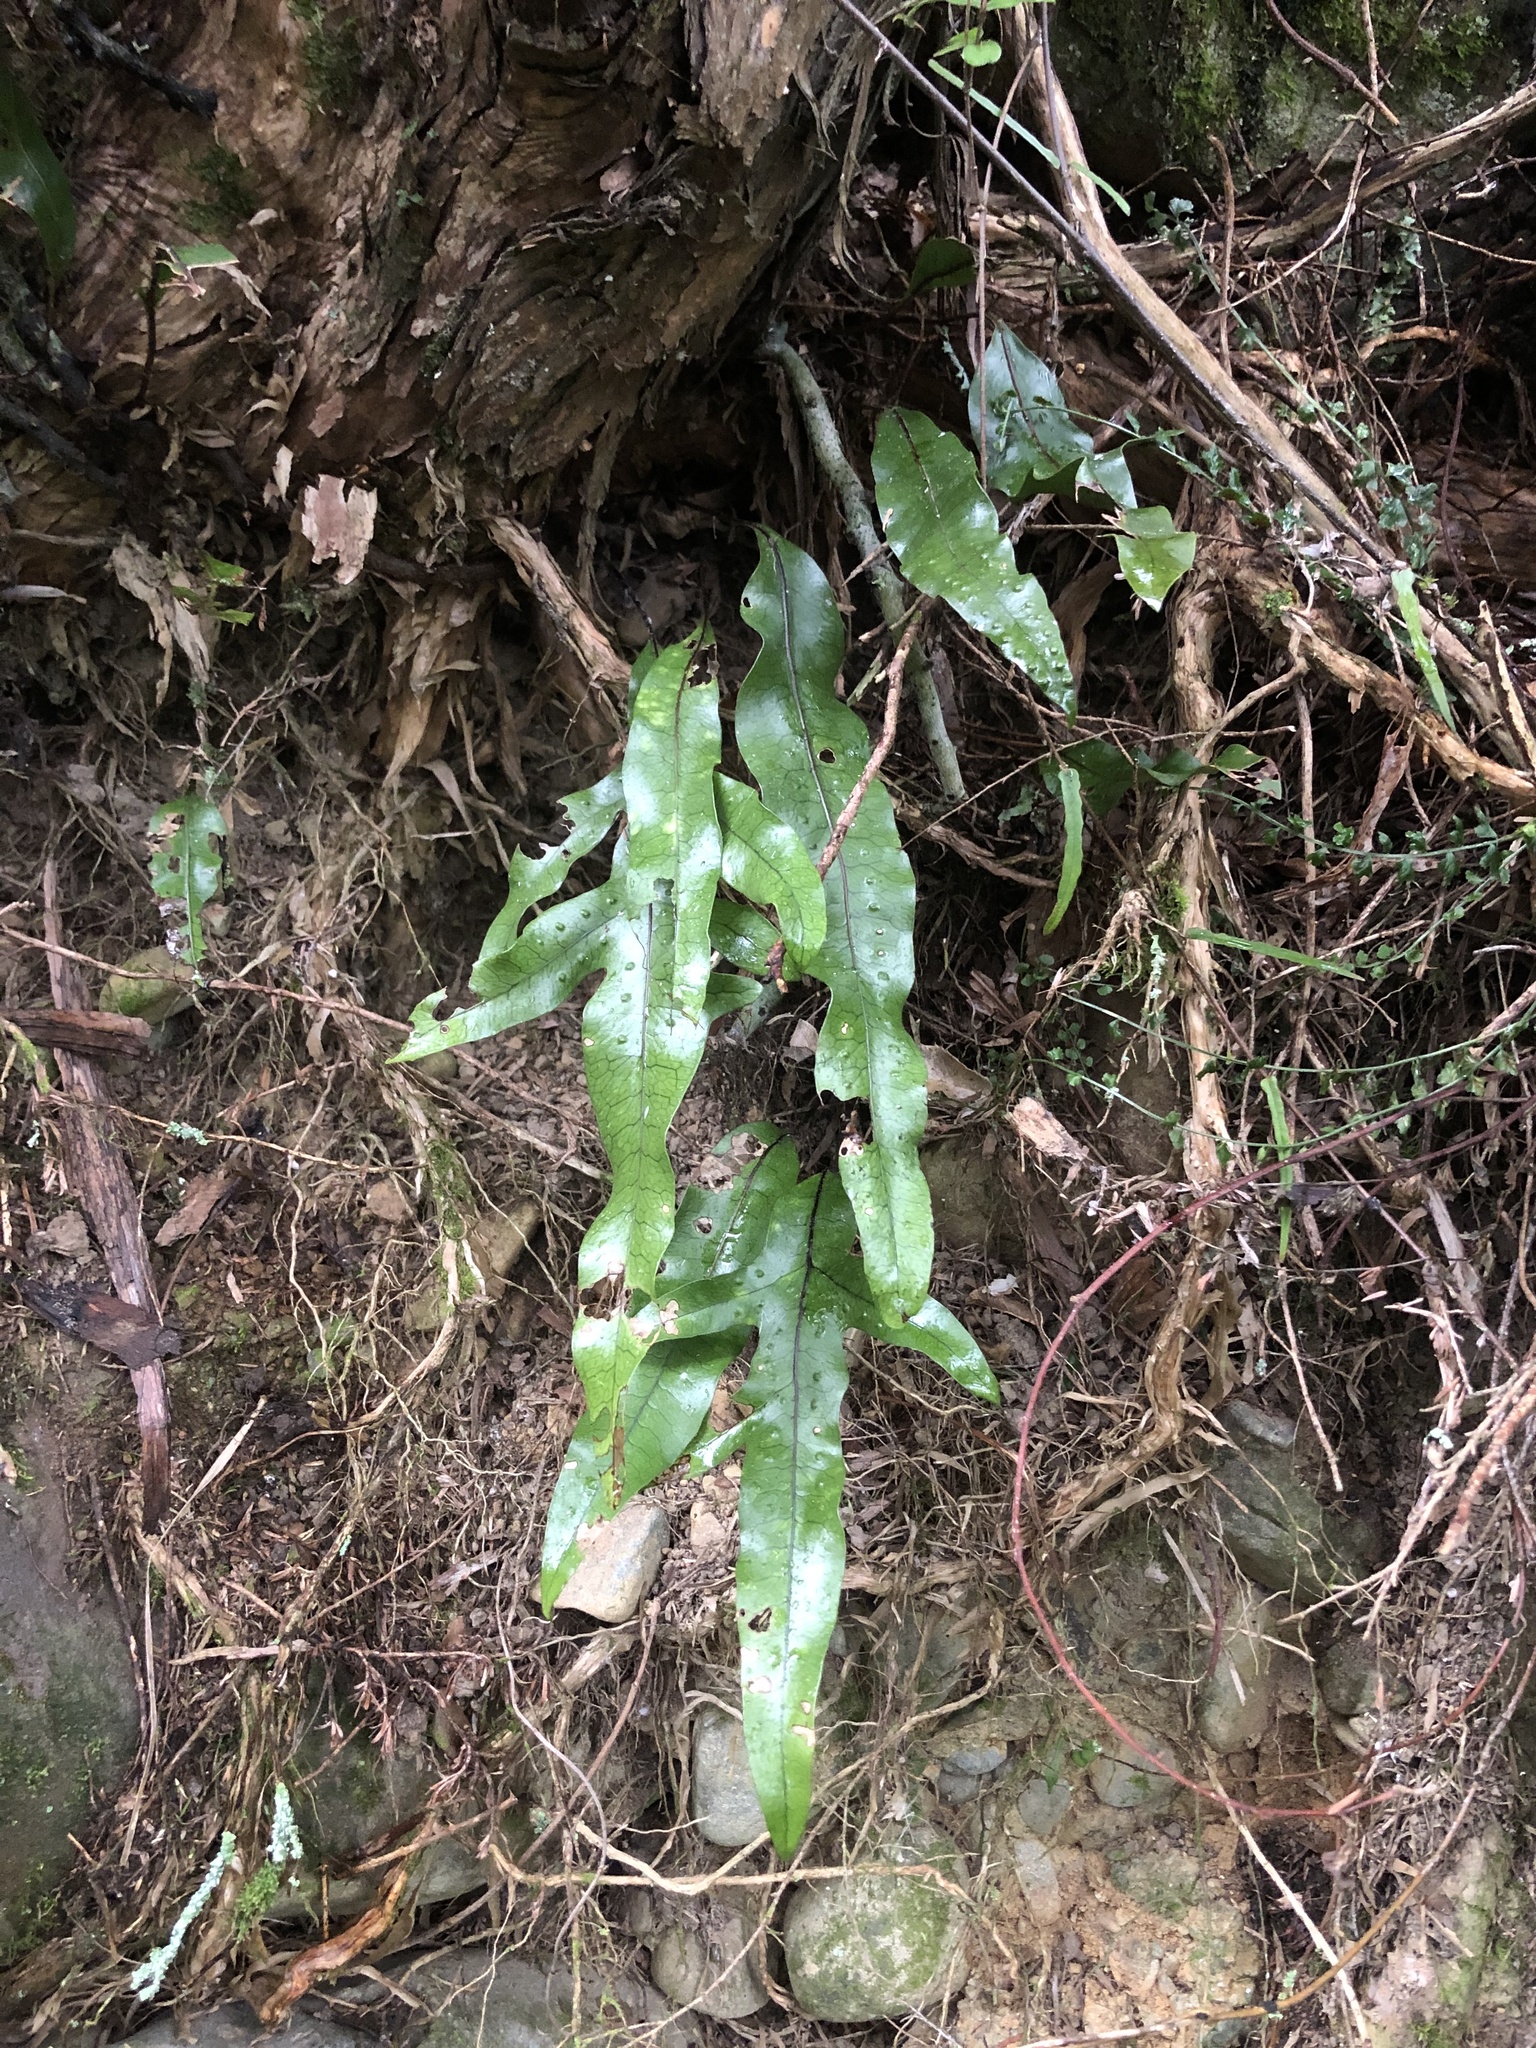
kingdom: Plantae
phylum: Tracheophyta
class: Polypodiopsida
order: Polypodiales
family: Polypodiaceae
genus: Lecanopteris
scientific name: Lecanopteris pustulata
